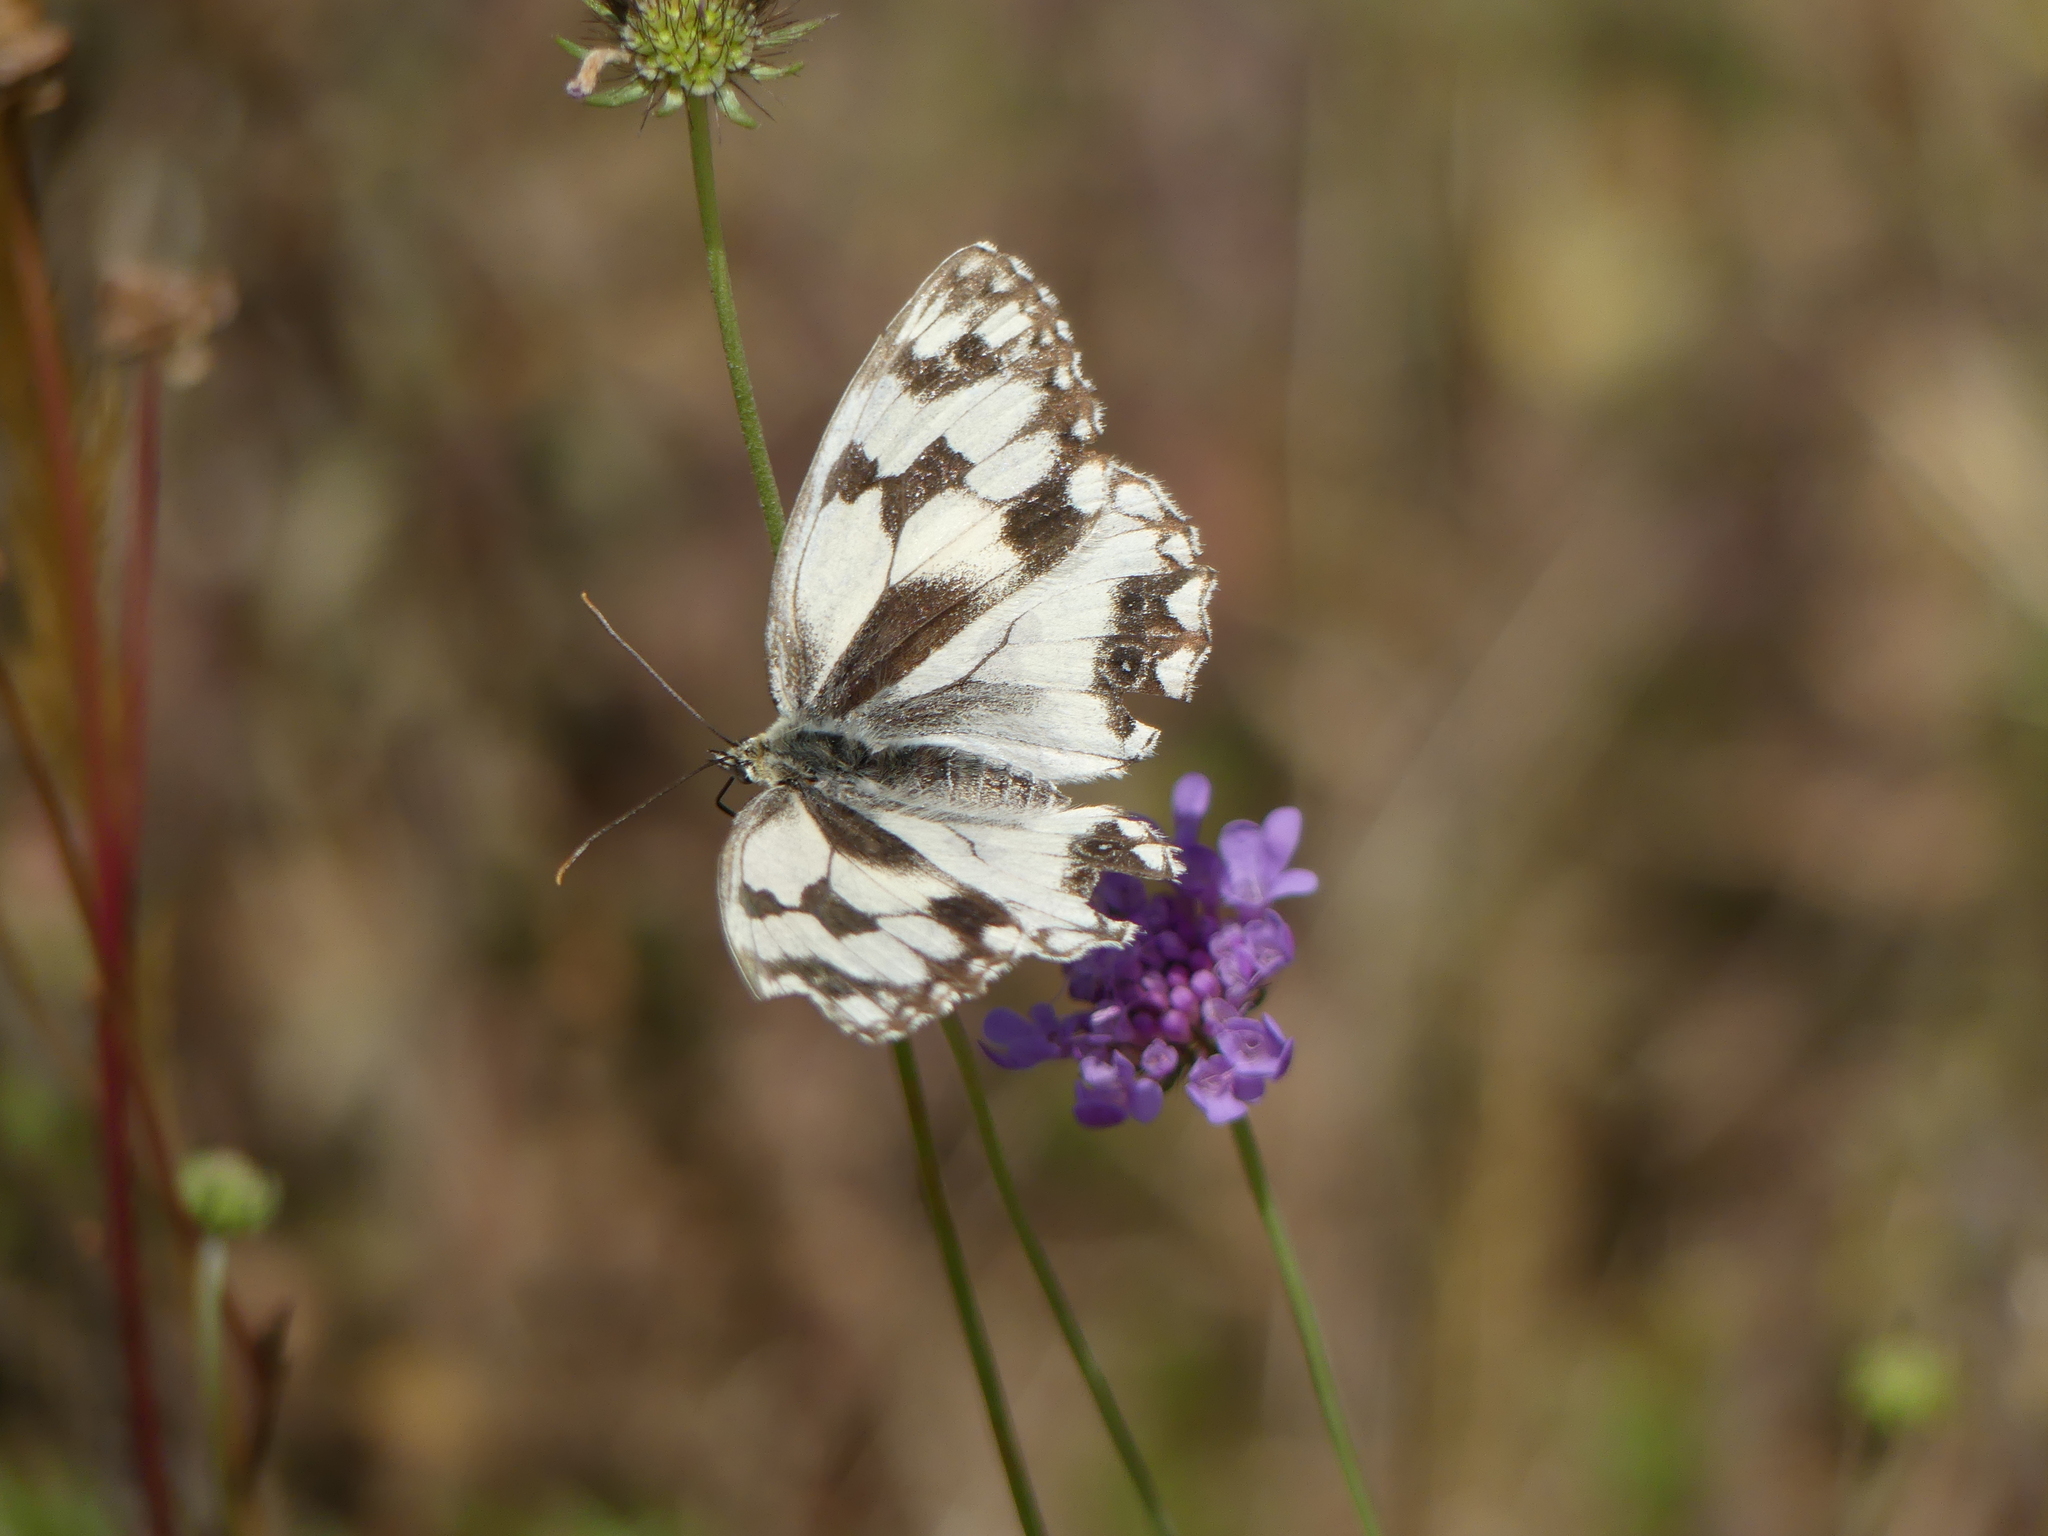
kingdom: Animalia
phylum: Arthropoda
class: Insecta
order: Lepidoptera
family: Nymphalidae
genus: Melanargia
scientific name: Melanargia lachesis
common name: Iberian marbled white
